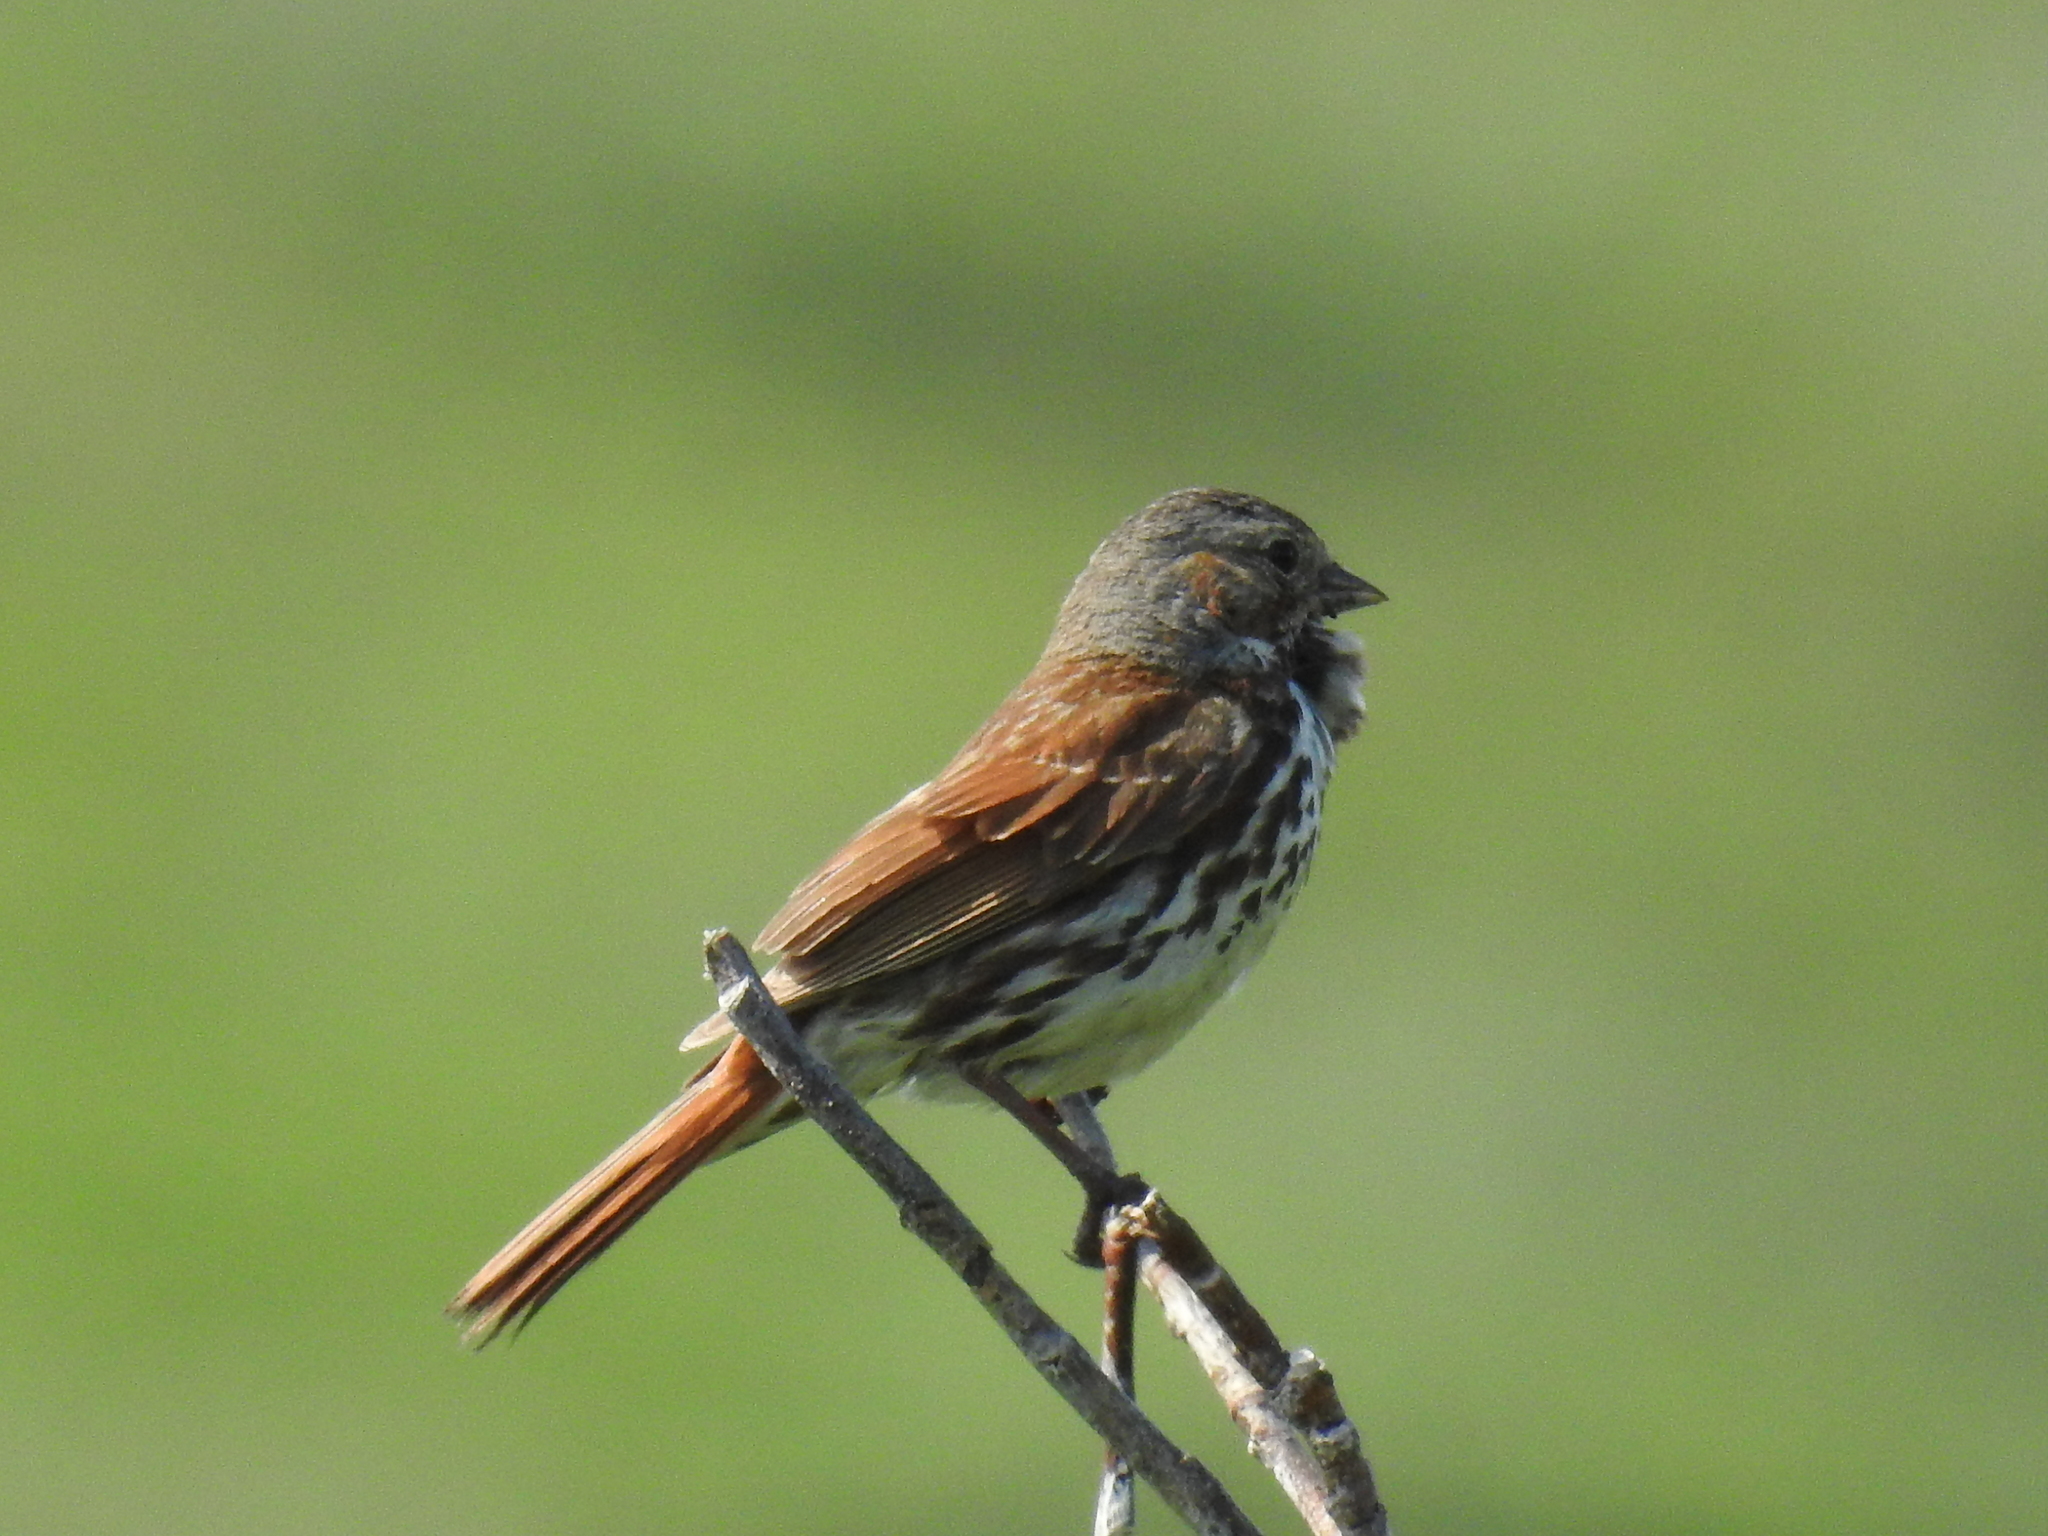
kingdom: Animalia
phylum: Chordata
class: Aves
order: Passeriformes
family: Passerellidae
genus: Passerella
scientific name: Passerella iliaca
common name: Fox sparrow
